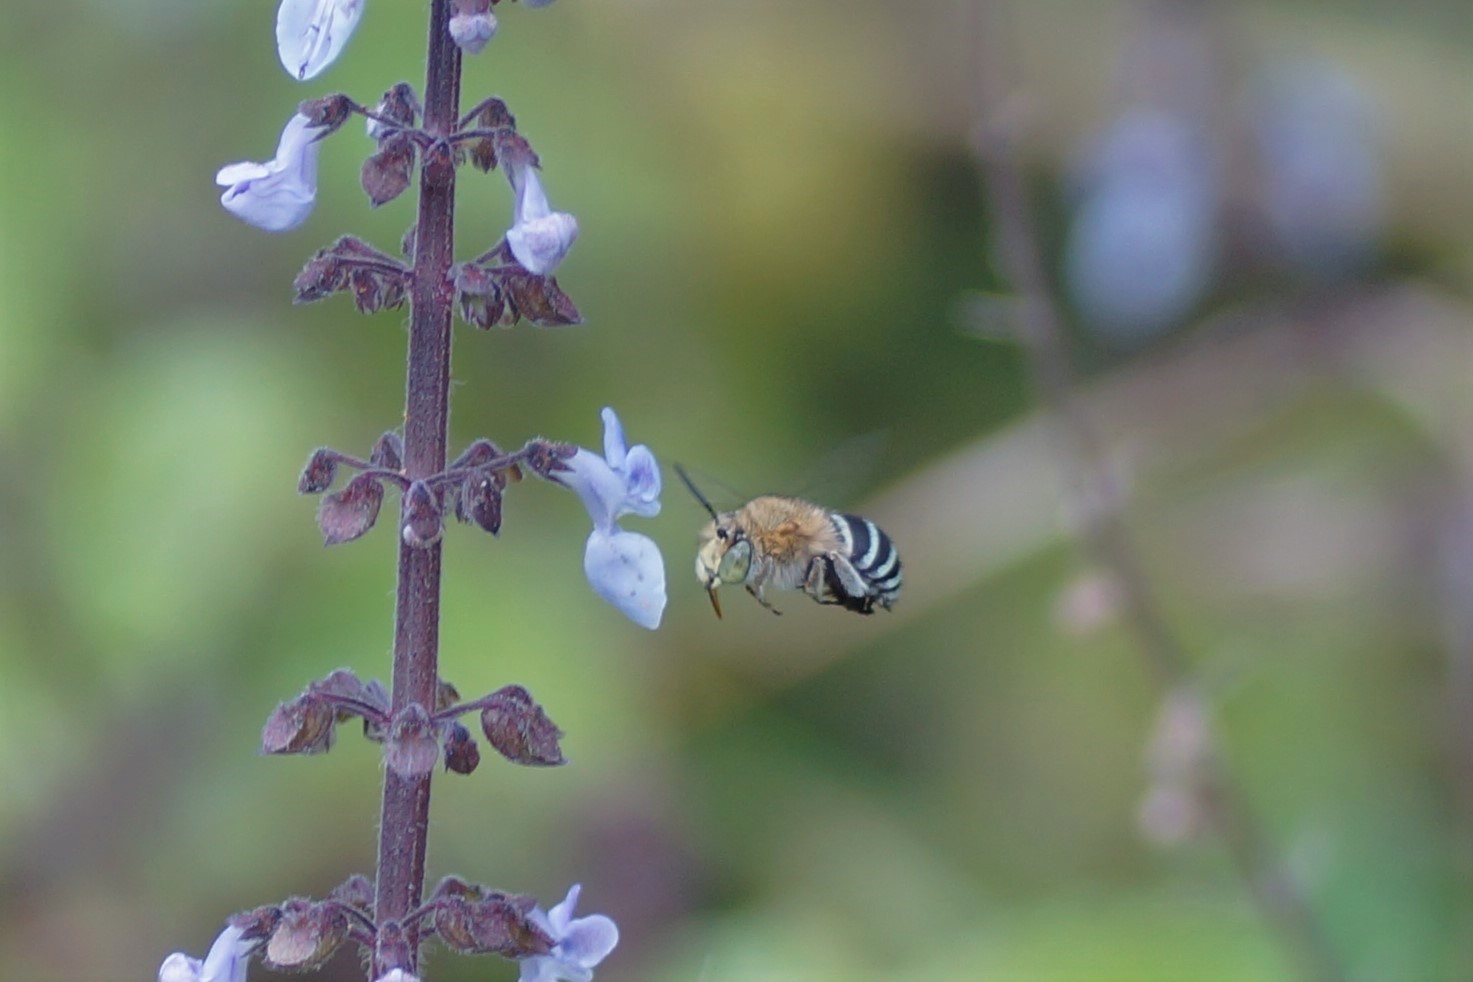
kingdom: Animalia
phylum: Arthropoda
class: Insecta
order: Hymenoptera
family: Apidae
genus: Amegilla
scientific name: Amegilla
